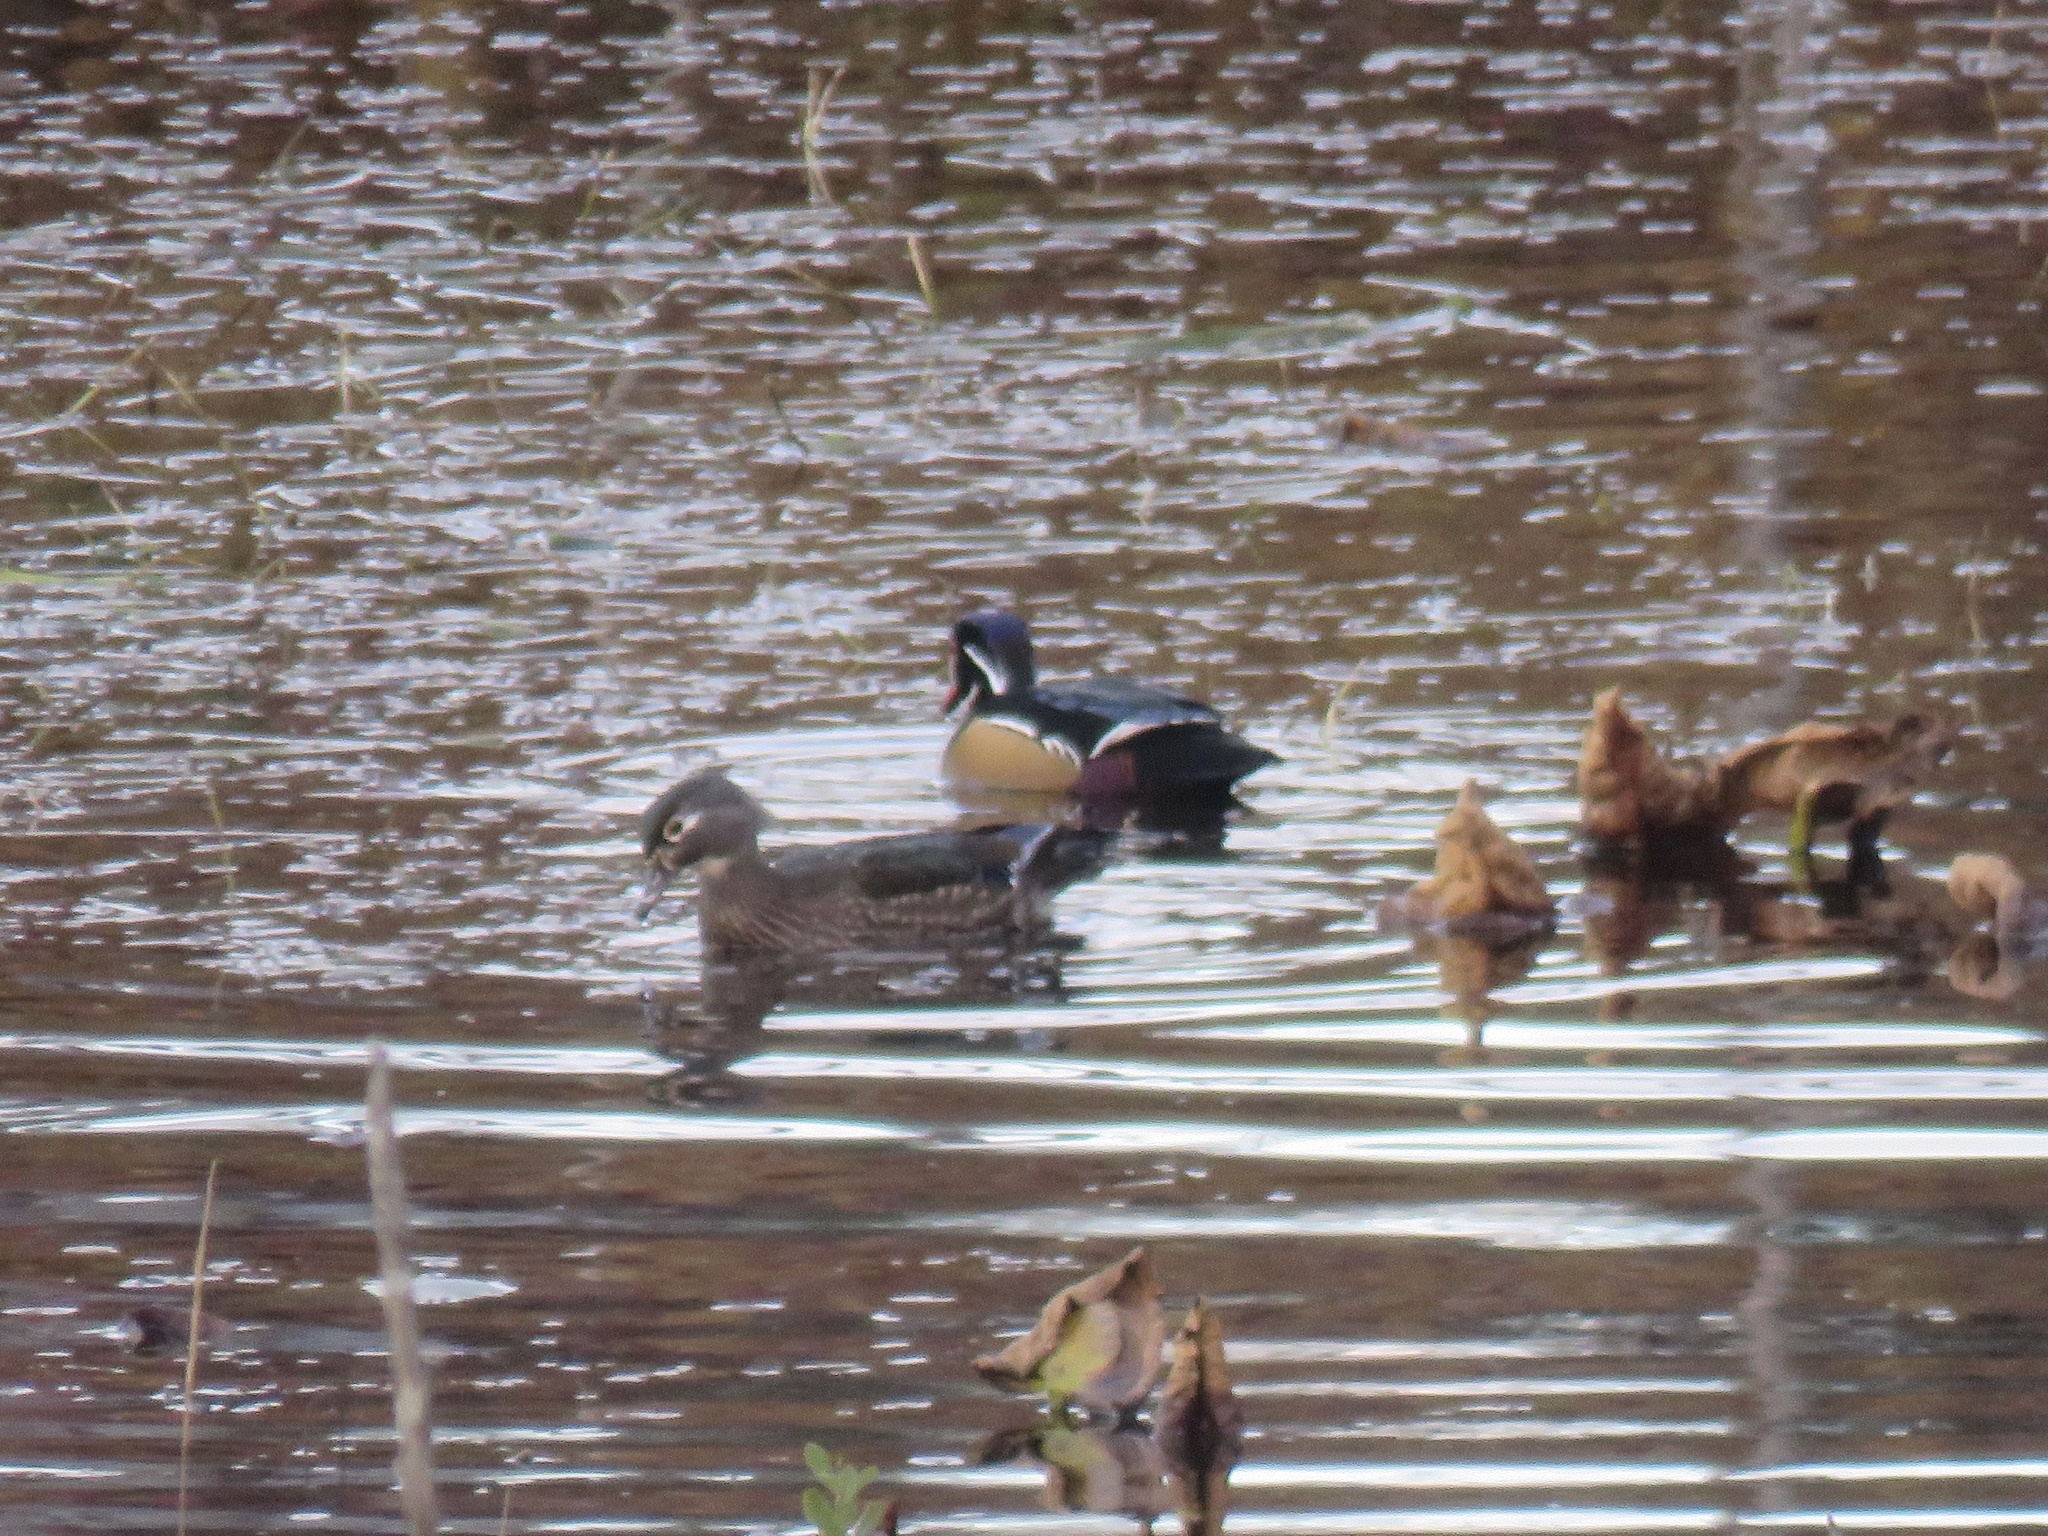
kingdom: Animalia
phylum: Chordata
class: Aves
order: Anseriformes
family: Anatidae
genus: Aix
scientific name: Aix sponsa
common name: Wood duck
